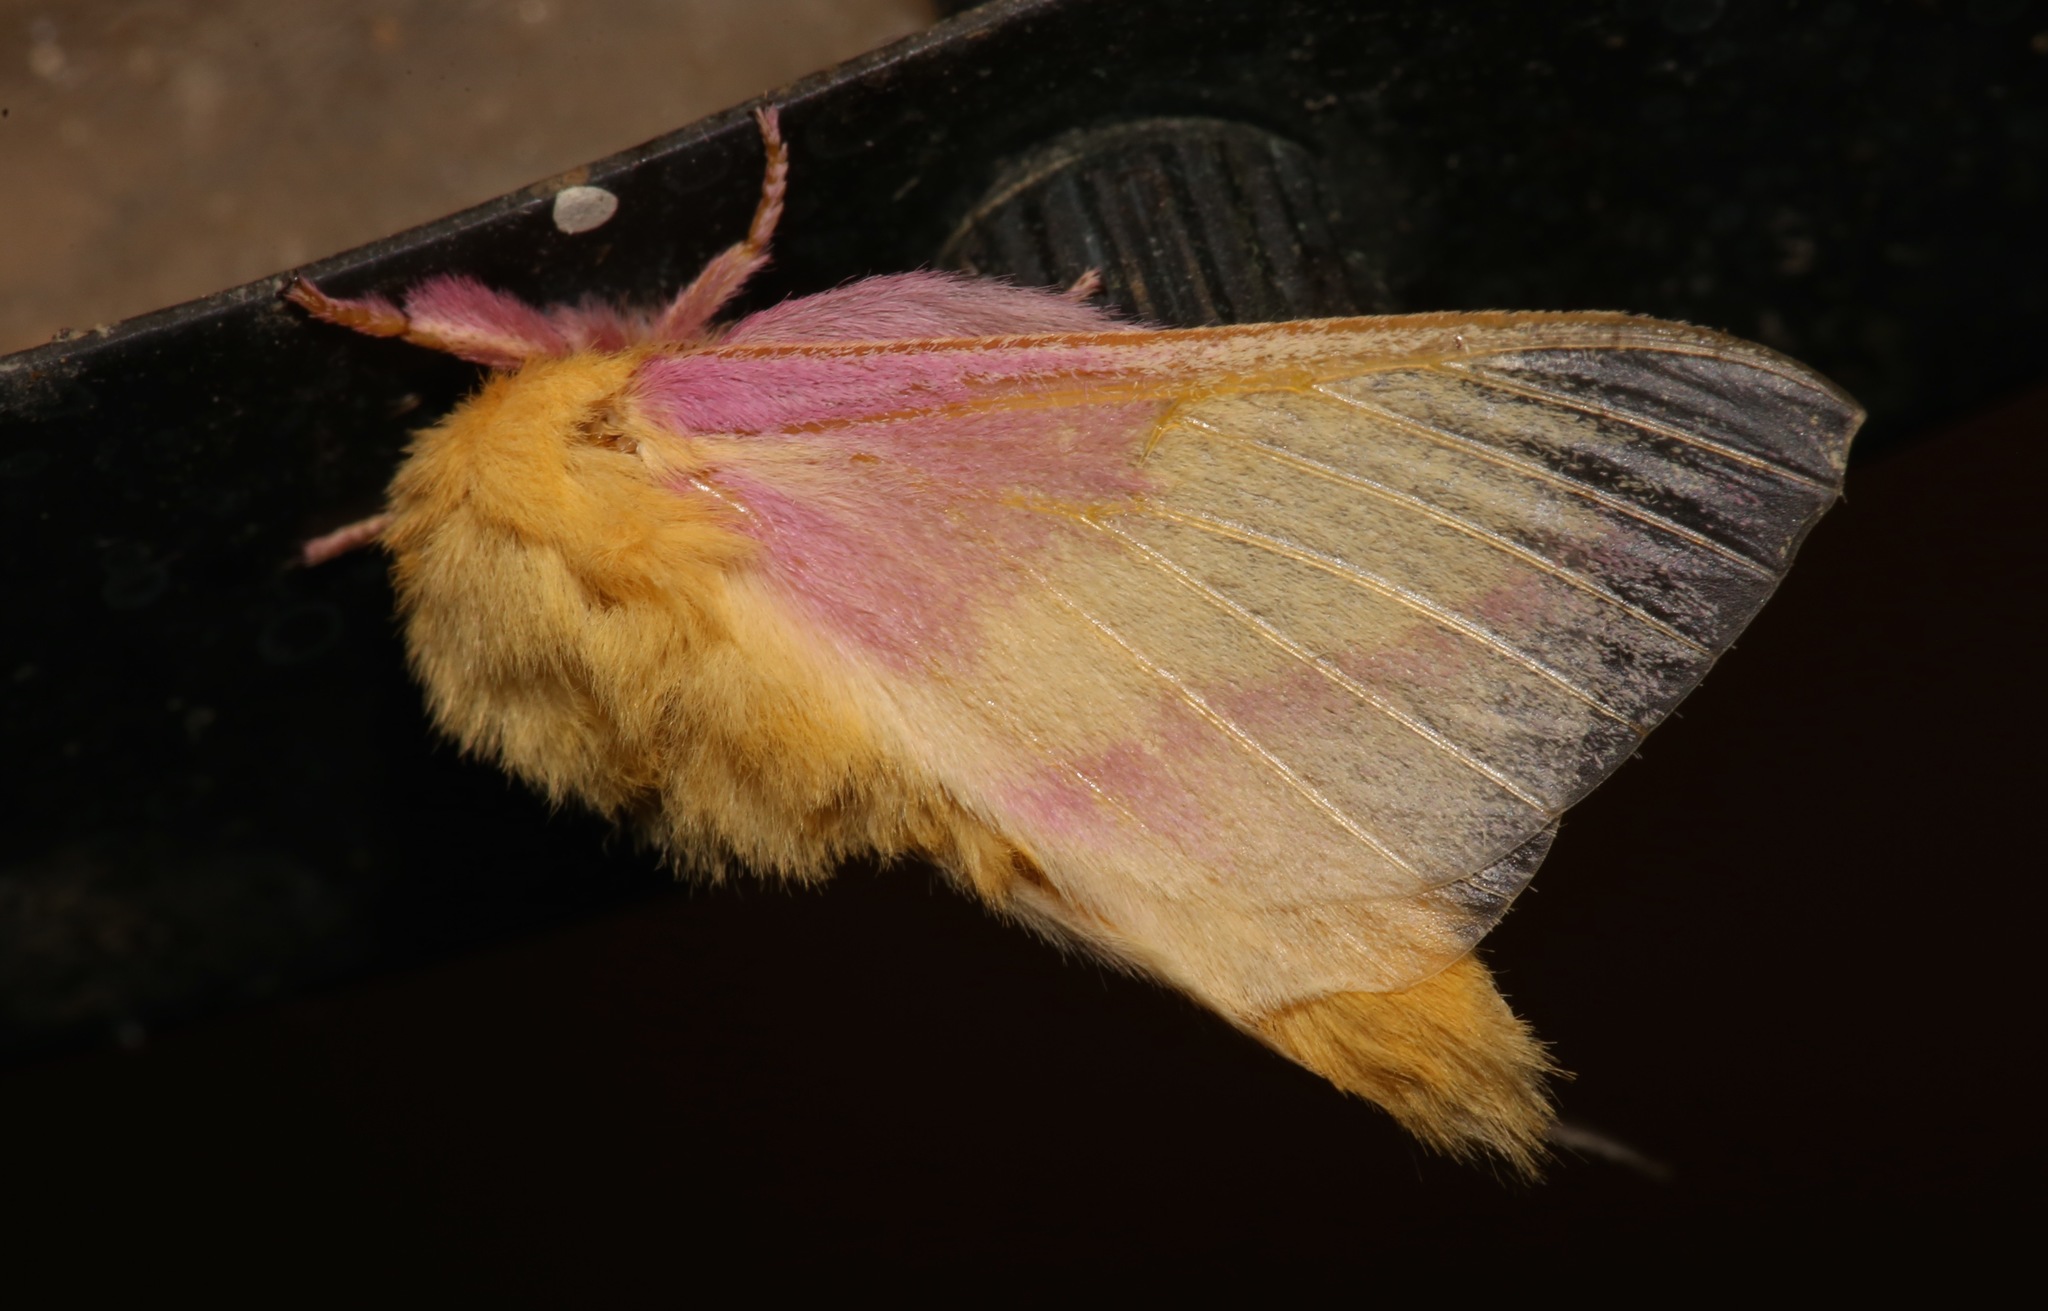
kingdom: Animalia
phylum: Arthropoda
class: Insecta
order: Lepidoptera
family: Saturniidae
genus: Dryocampa
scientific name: Dryocampa rubicunda
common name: Rosy maple moth
